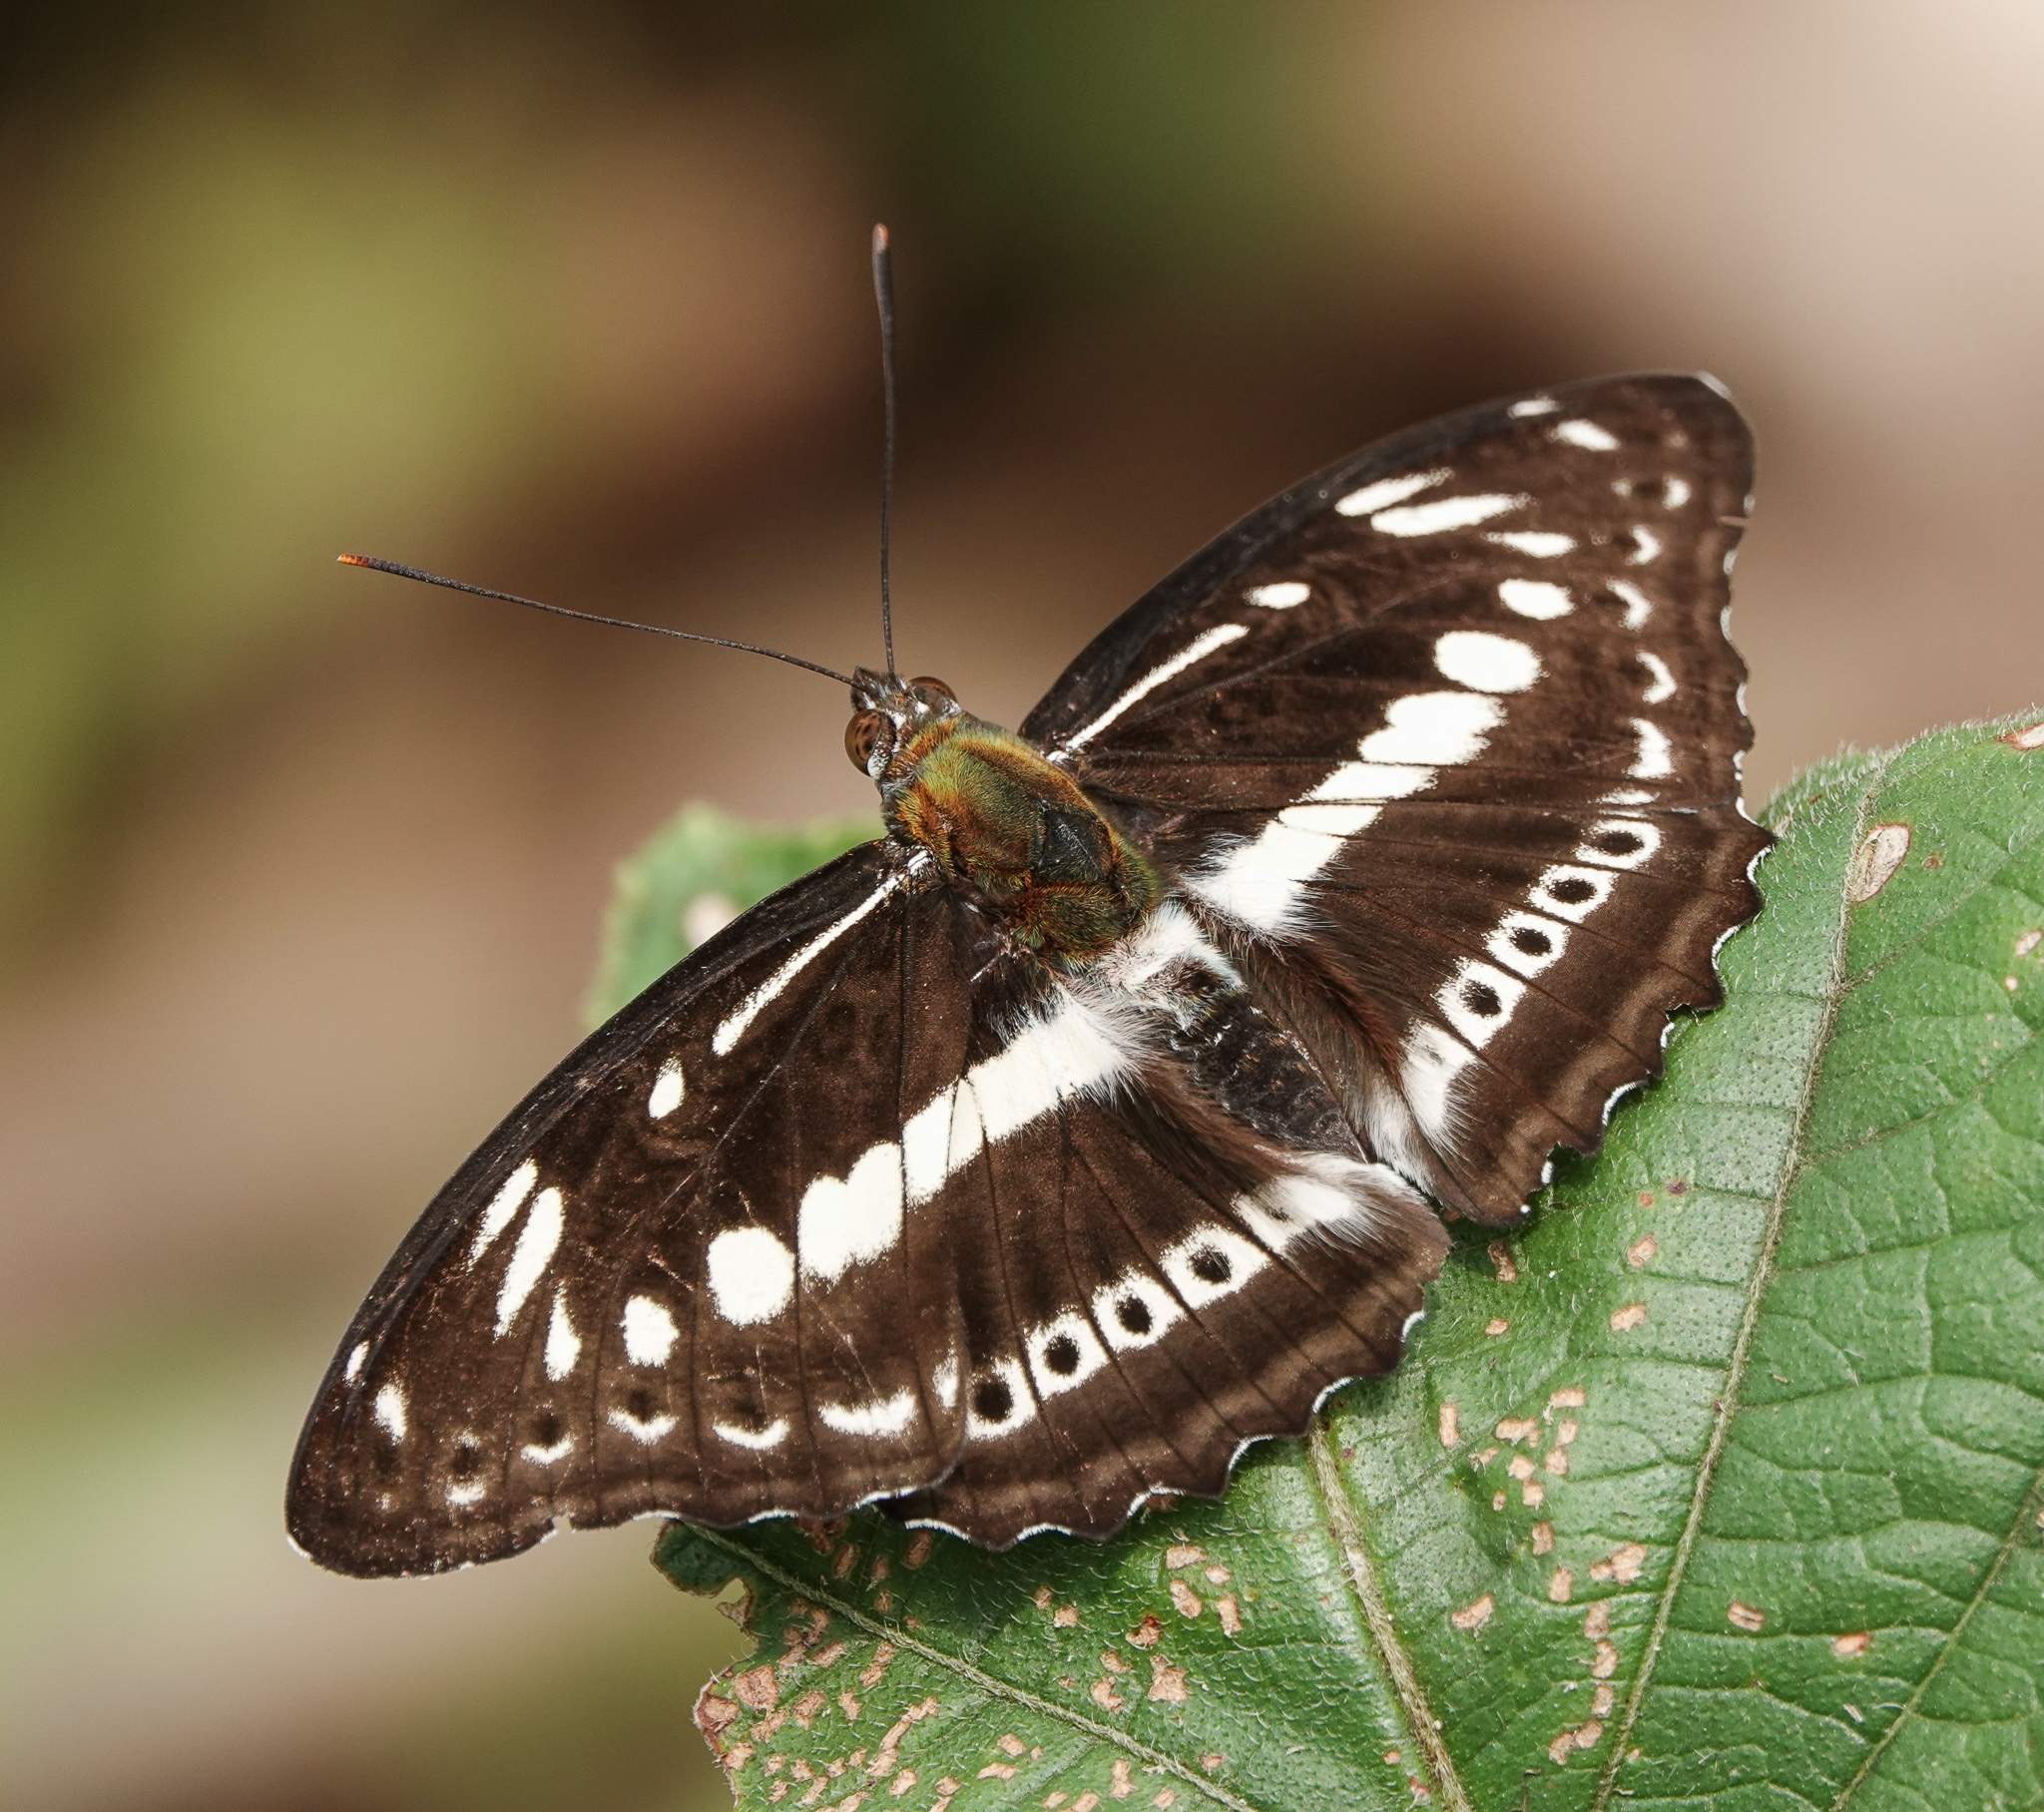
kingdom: Animalia
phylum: Arthropoda
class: Insecta
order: Lepidoptera
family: Nymphalidae
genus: Parathyma
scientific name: Parathyma asura
